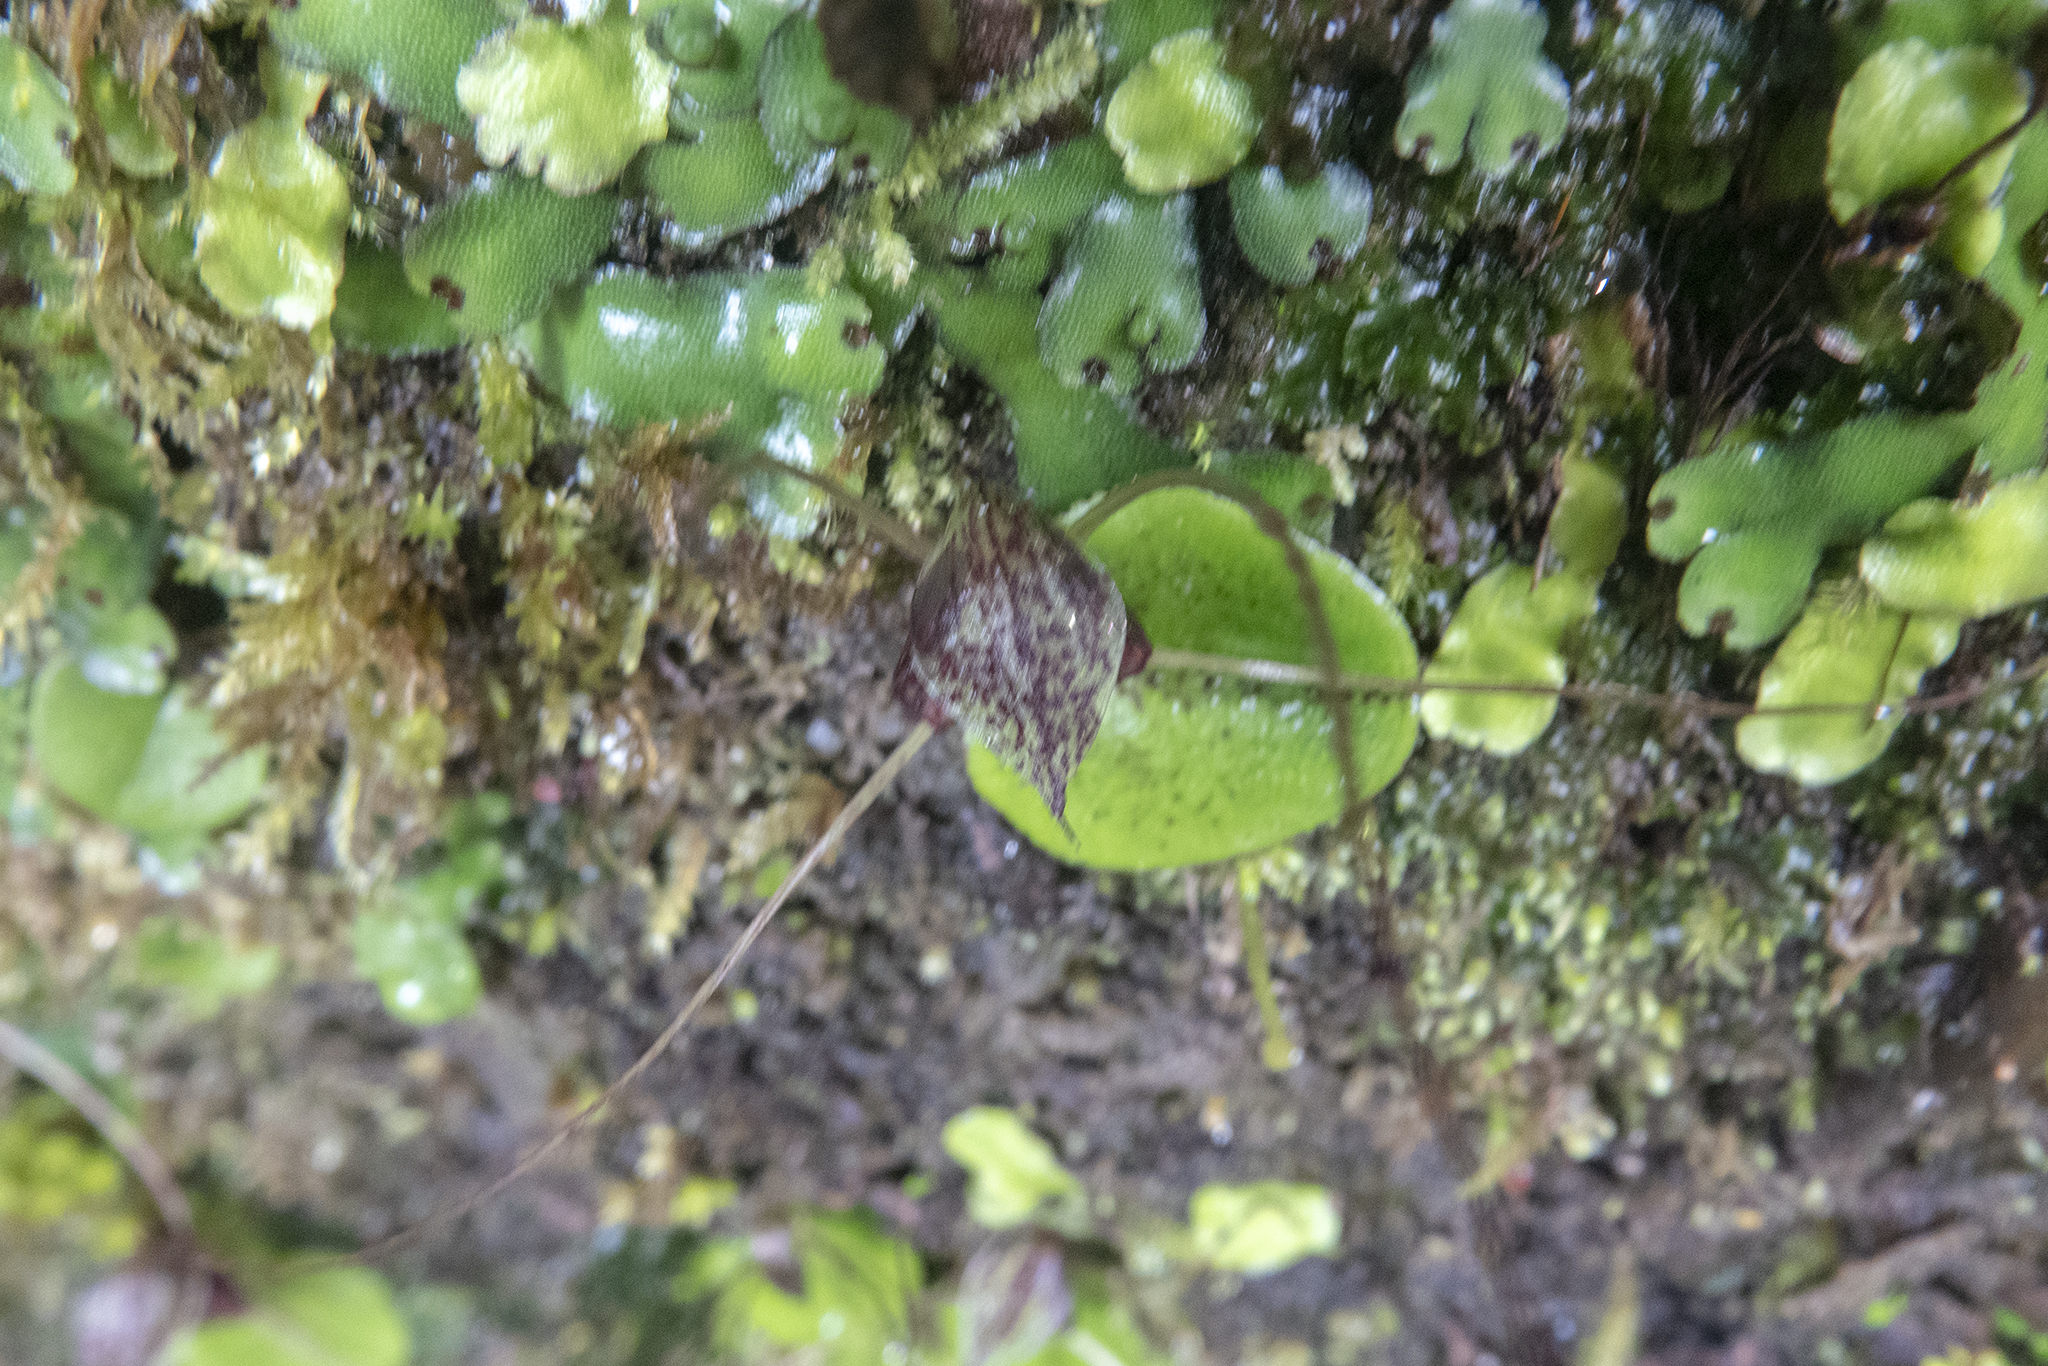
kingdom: Plantae
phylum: Tracheophyta
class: Liliopsida
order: Asparagales
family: Orchidaceae
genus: Corybas
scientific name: Corybas iridescens
